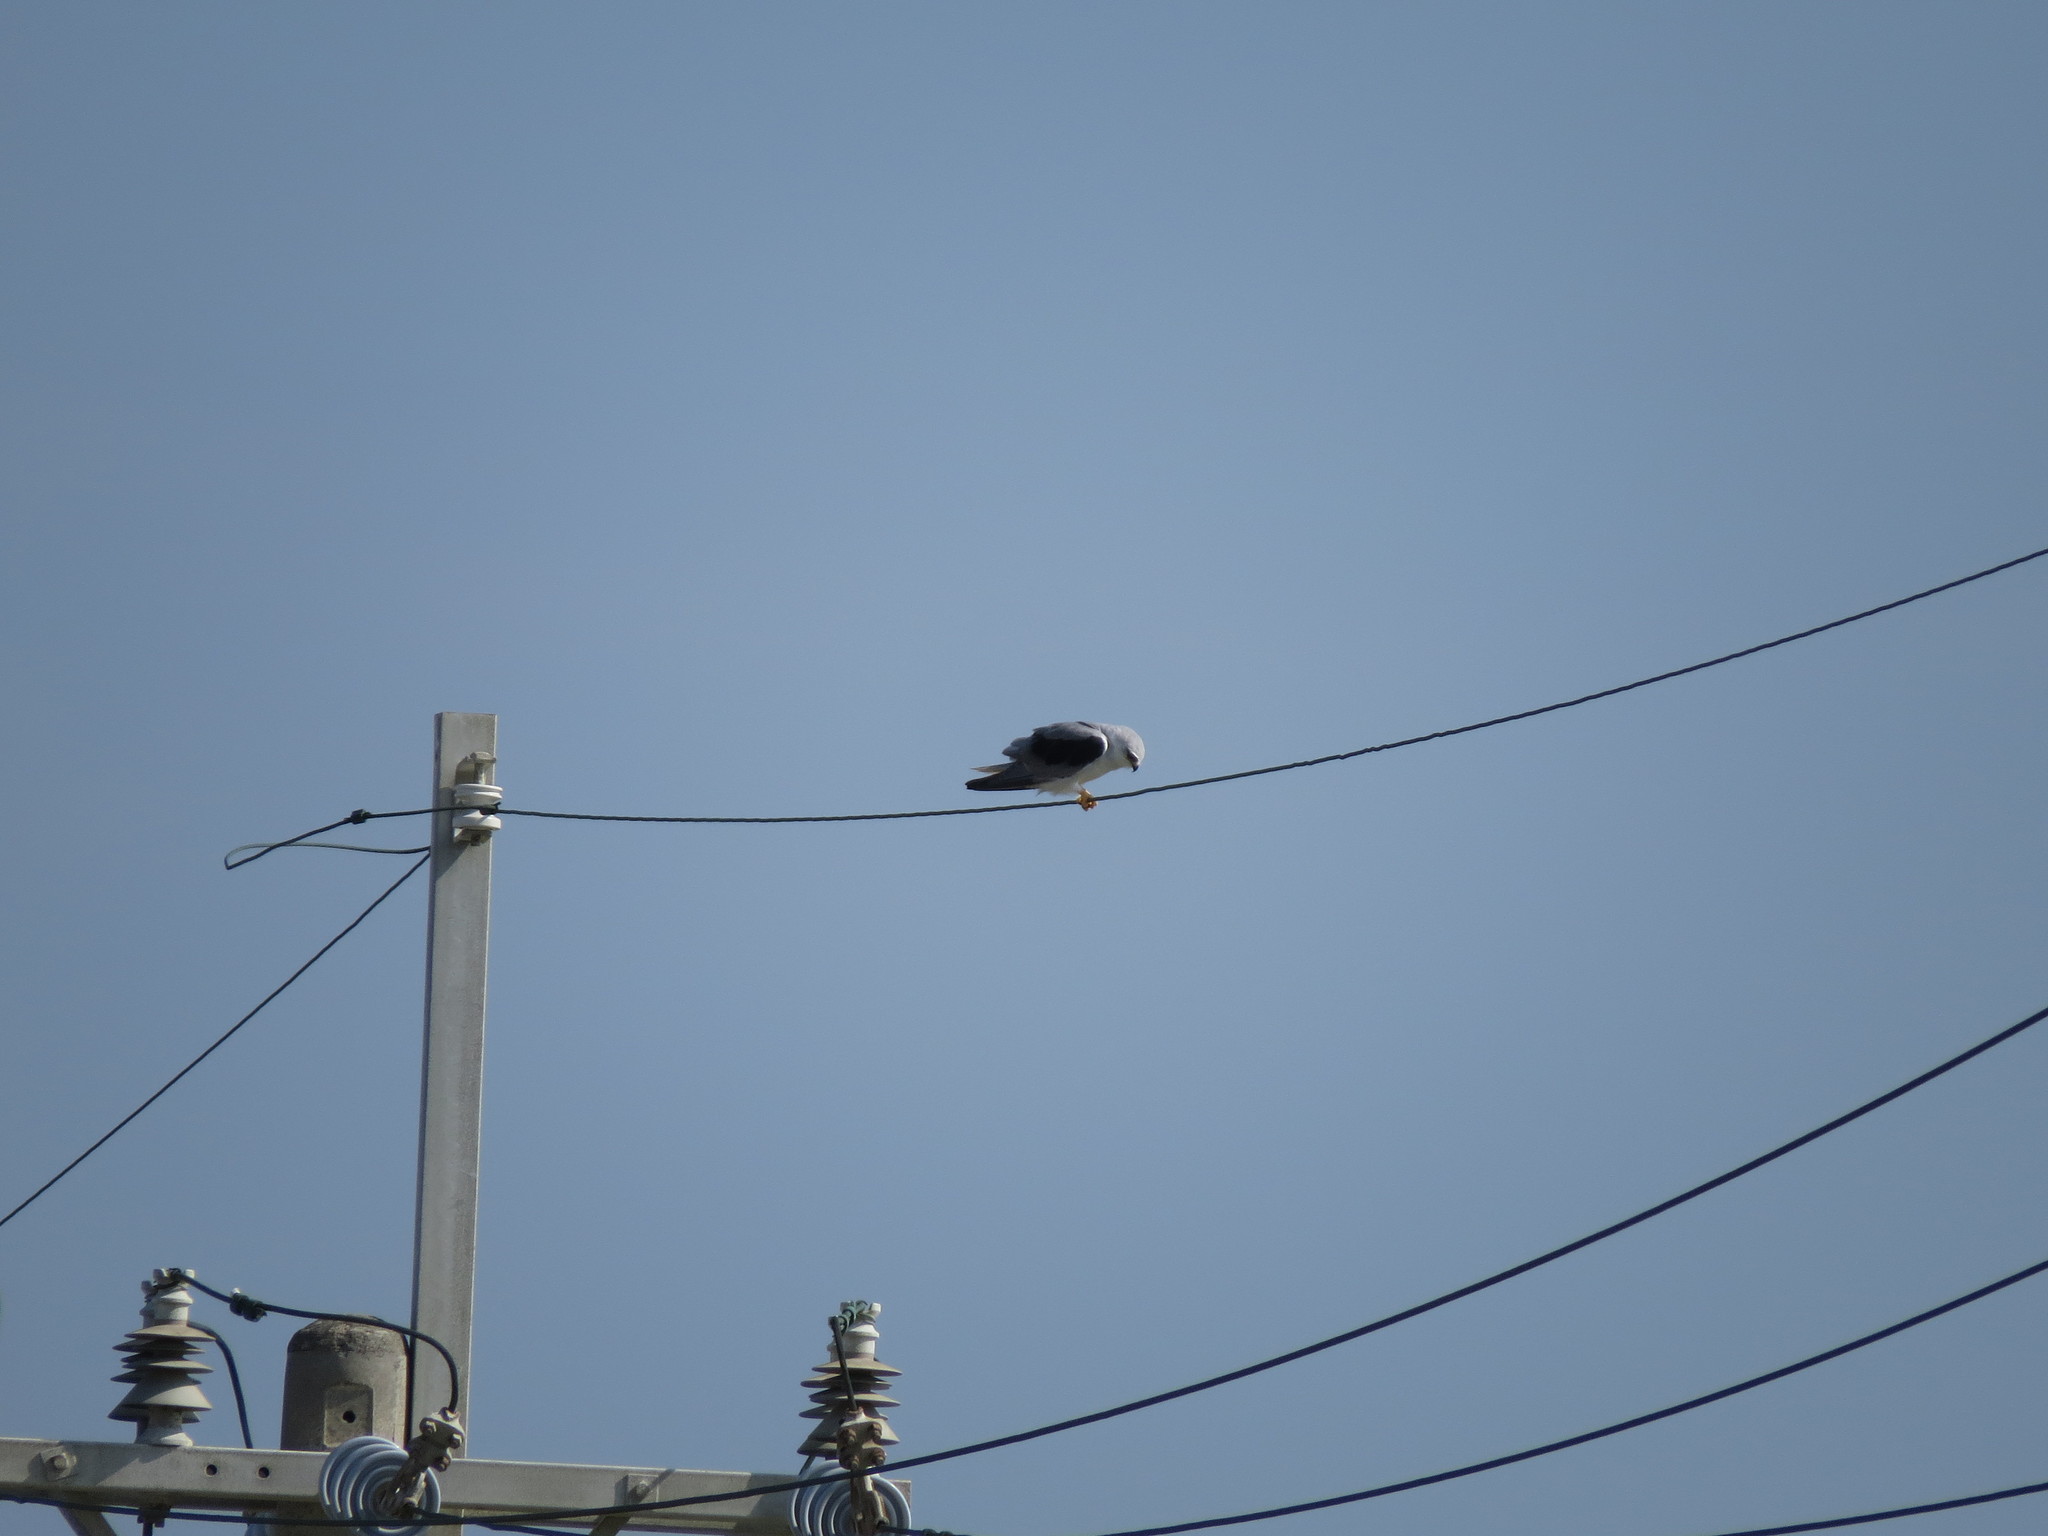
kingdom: Animalia
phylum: Chordata
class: Aves
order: Accipitriformes
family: Accipitridae
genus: Elanus
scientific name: Elanus caeruleus
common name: Black-winged kite
